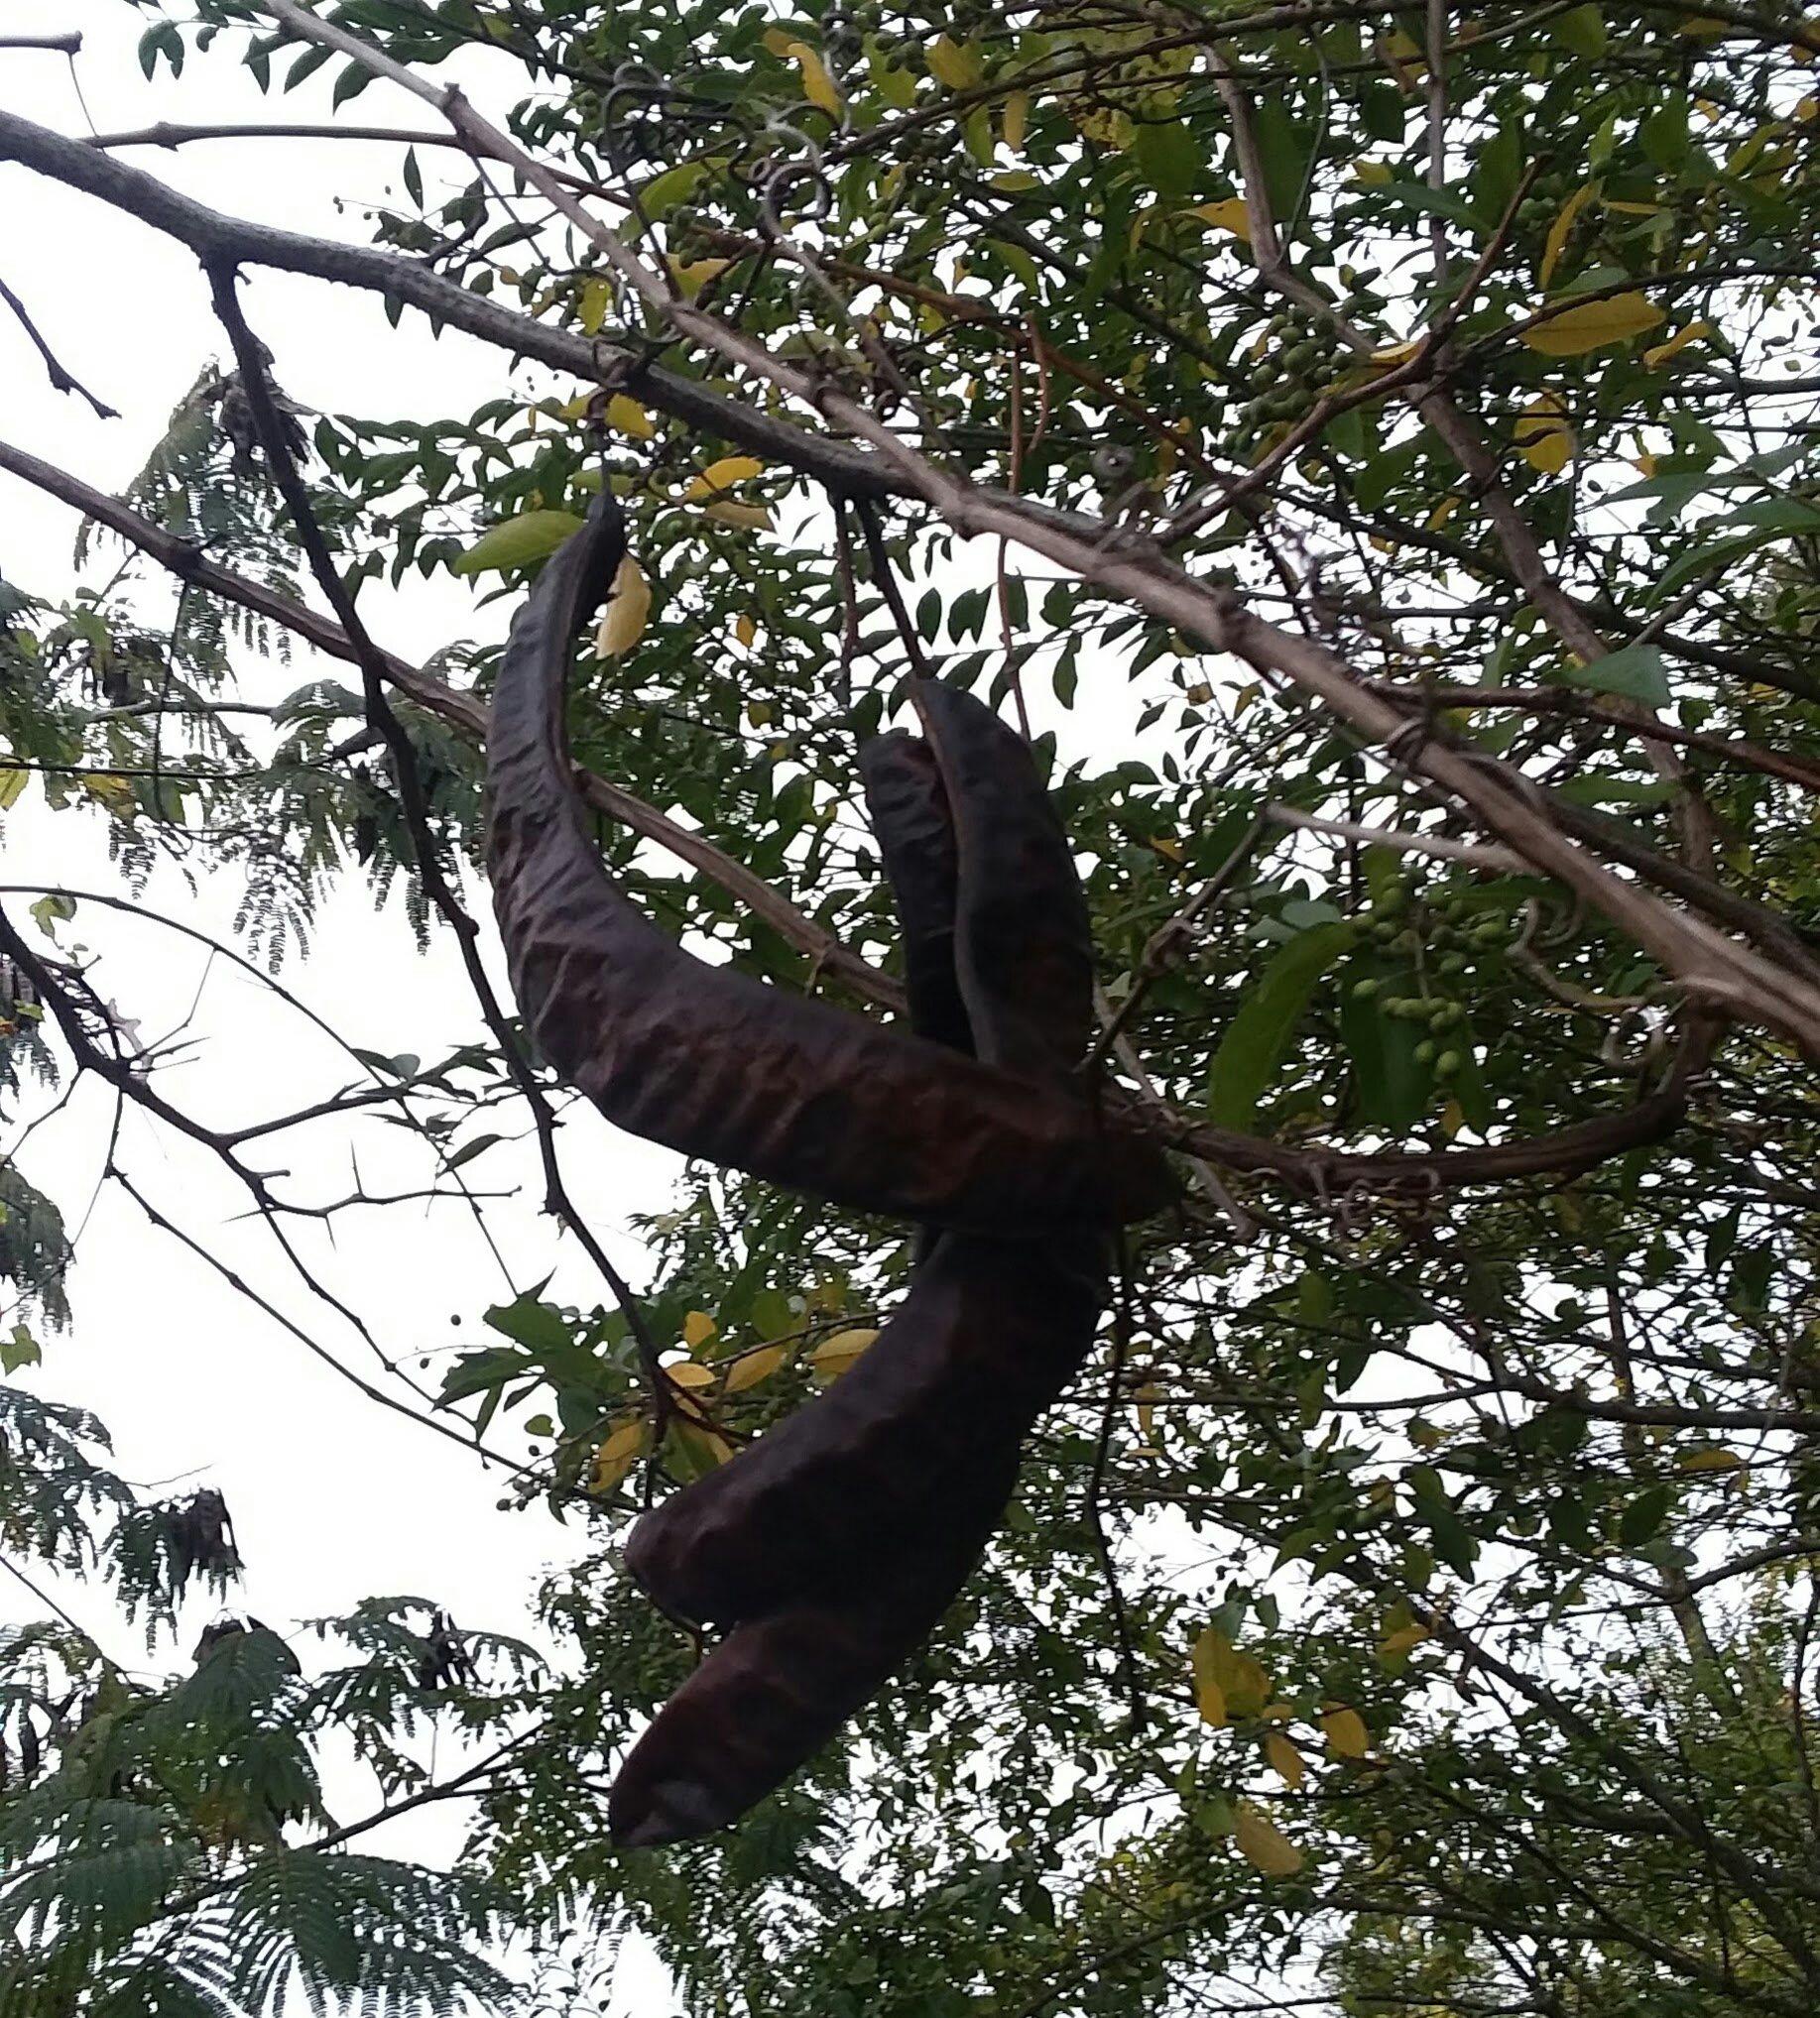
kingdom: Plantae
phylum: Tracheophyta
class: Magnoliopsida
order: Fabales
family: Fabaceae
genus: Gleditsia
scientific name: Gleditsia triacanthos
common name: Common honeylocust
